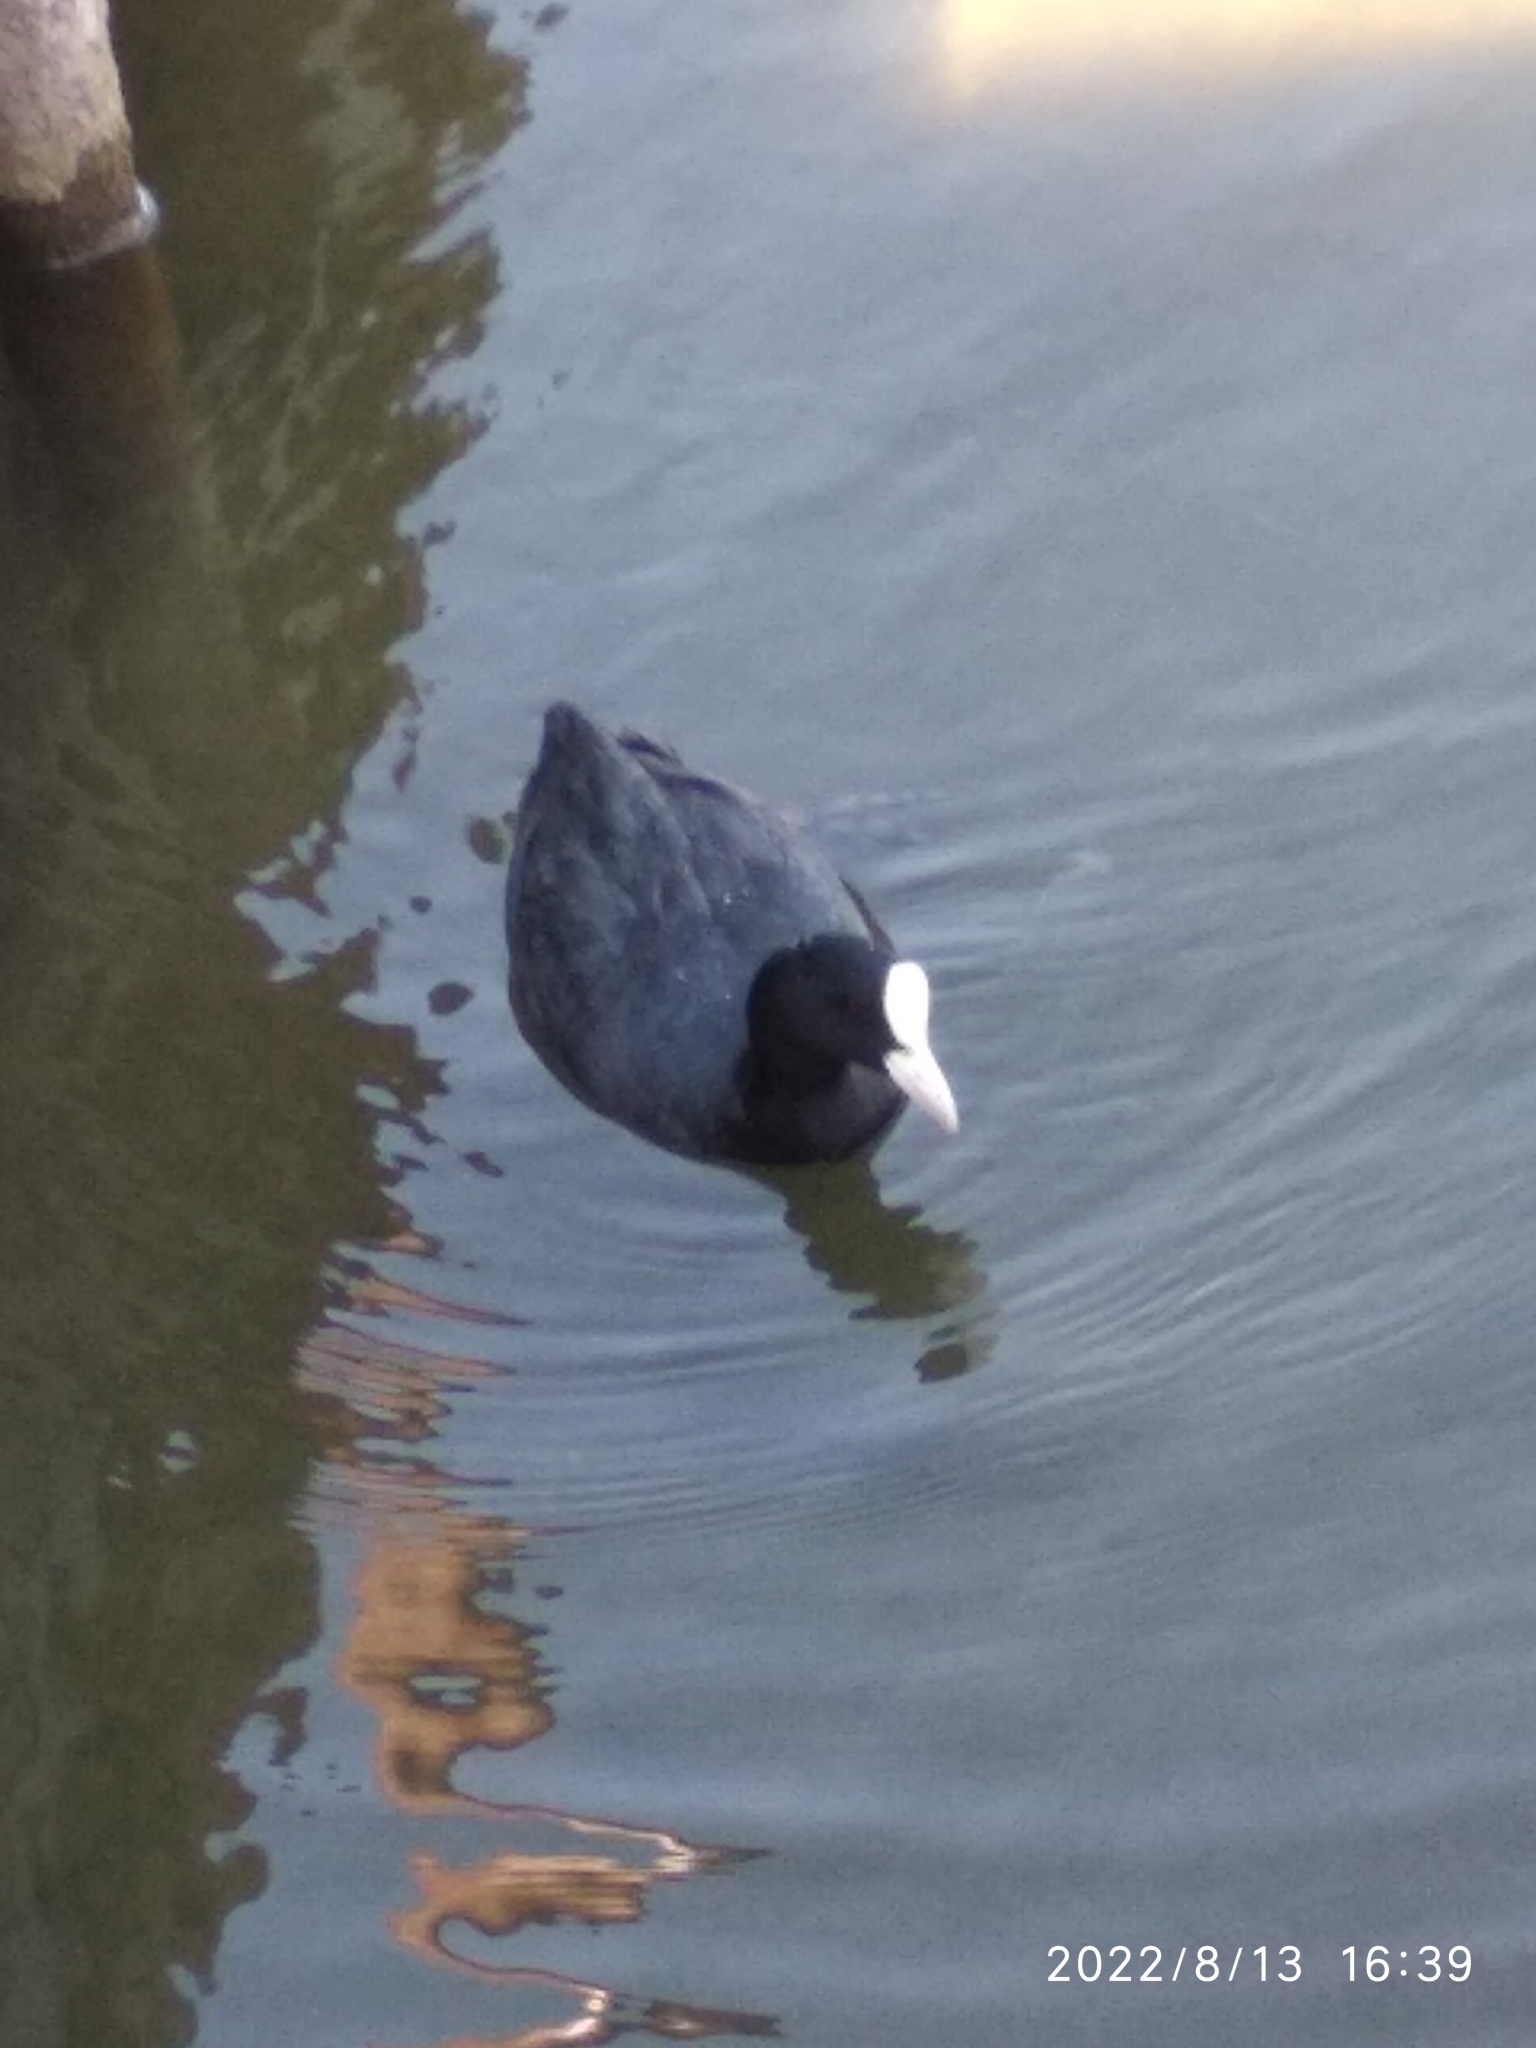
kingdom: Animalia
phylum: Chordata
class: Aves
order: Gruiformes
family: Rallidae
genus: Fulica
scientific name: Fulica atra
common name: Eurasian coot
